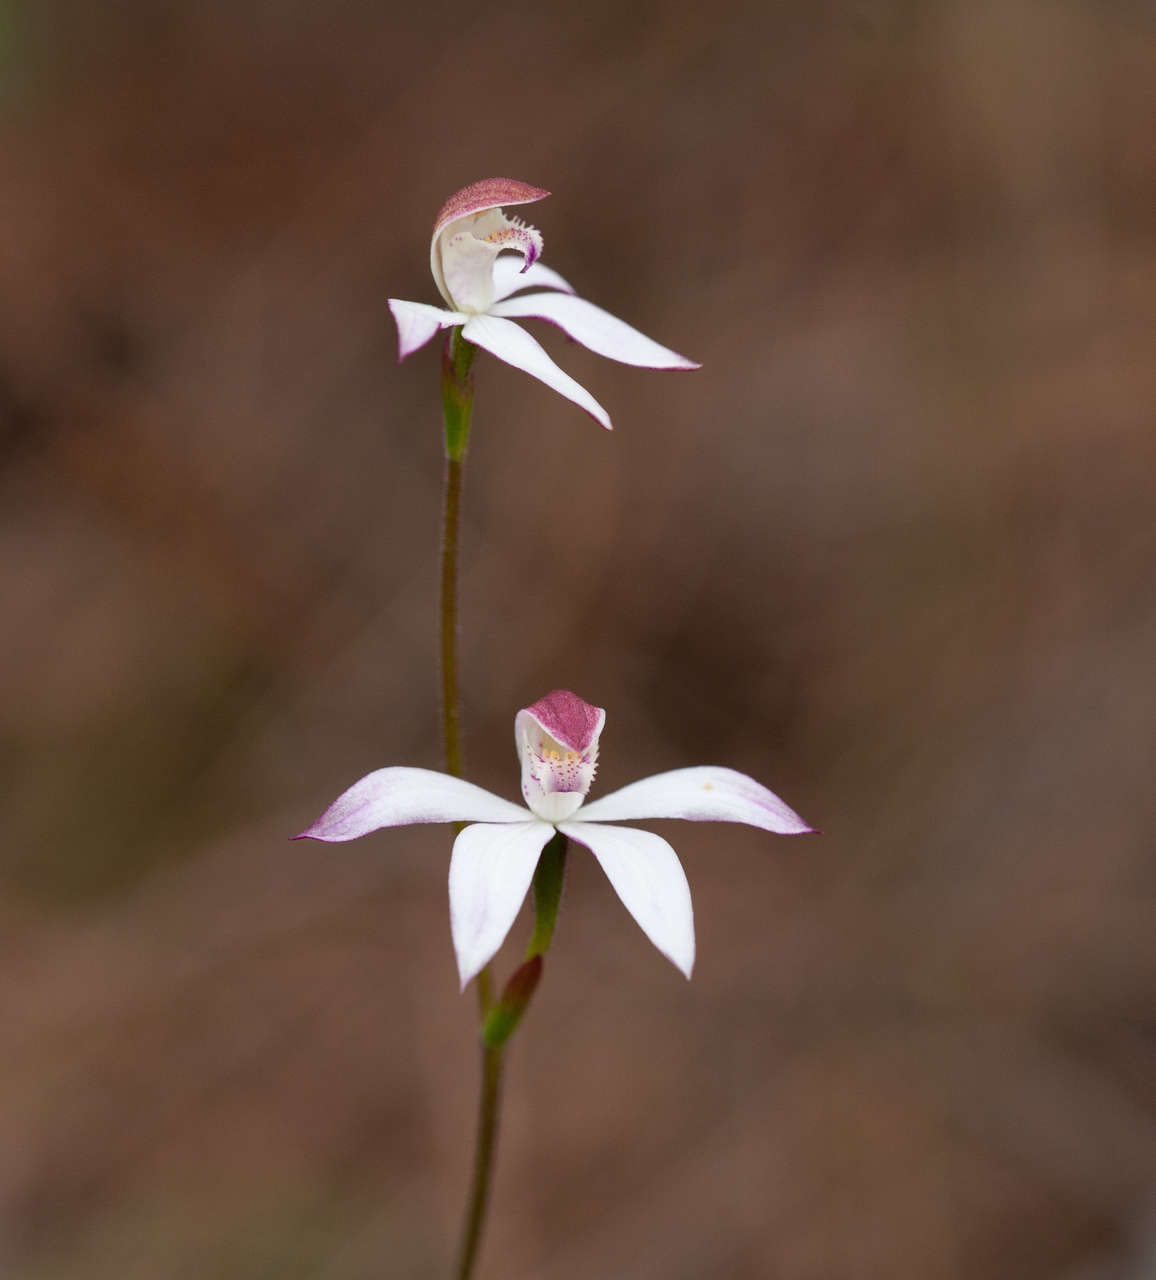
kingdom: Plantae
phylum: Tracheophyta
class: Liliopsida
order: Asparagales
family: Orchidaceae
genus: Caladenia
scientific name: Caladenia moschata
